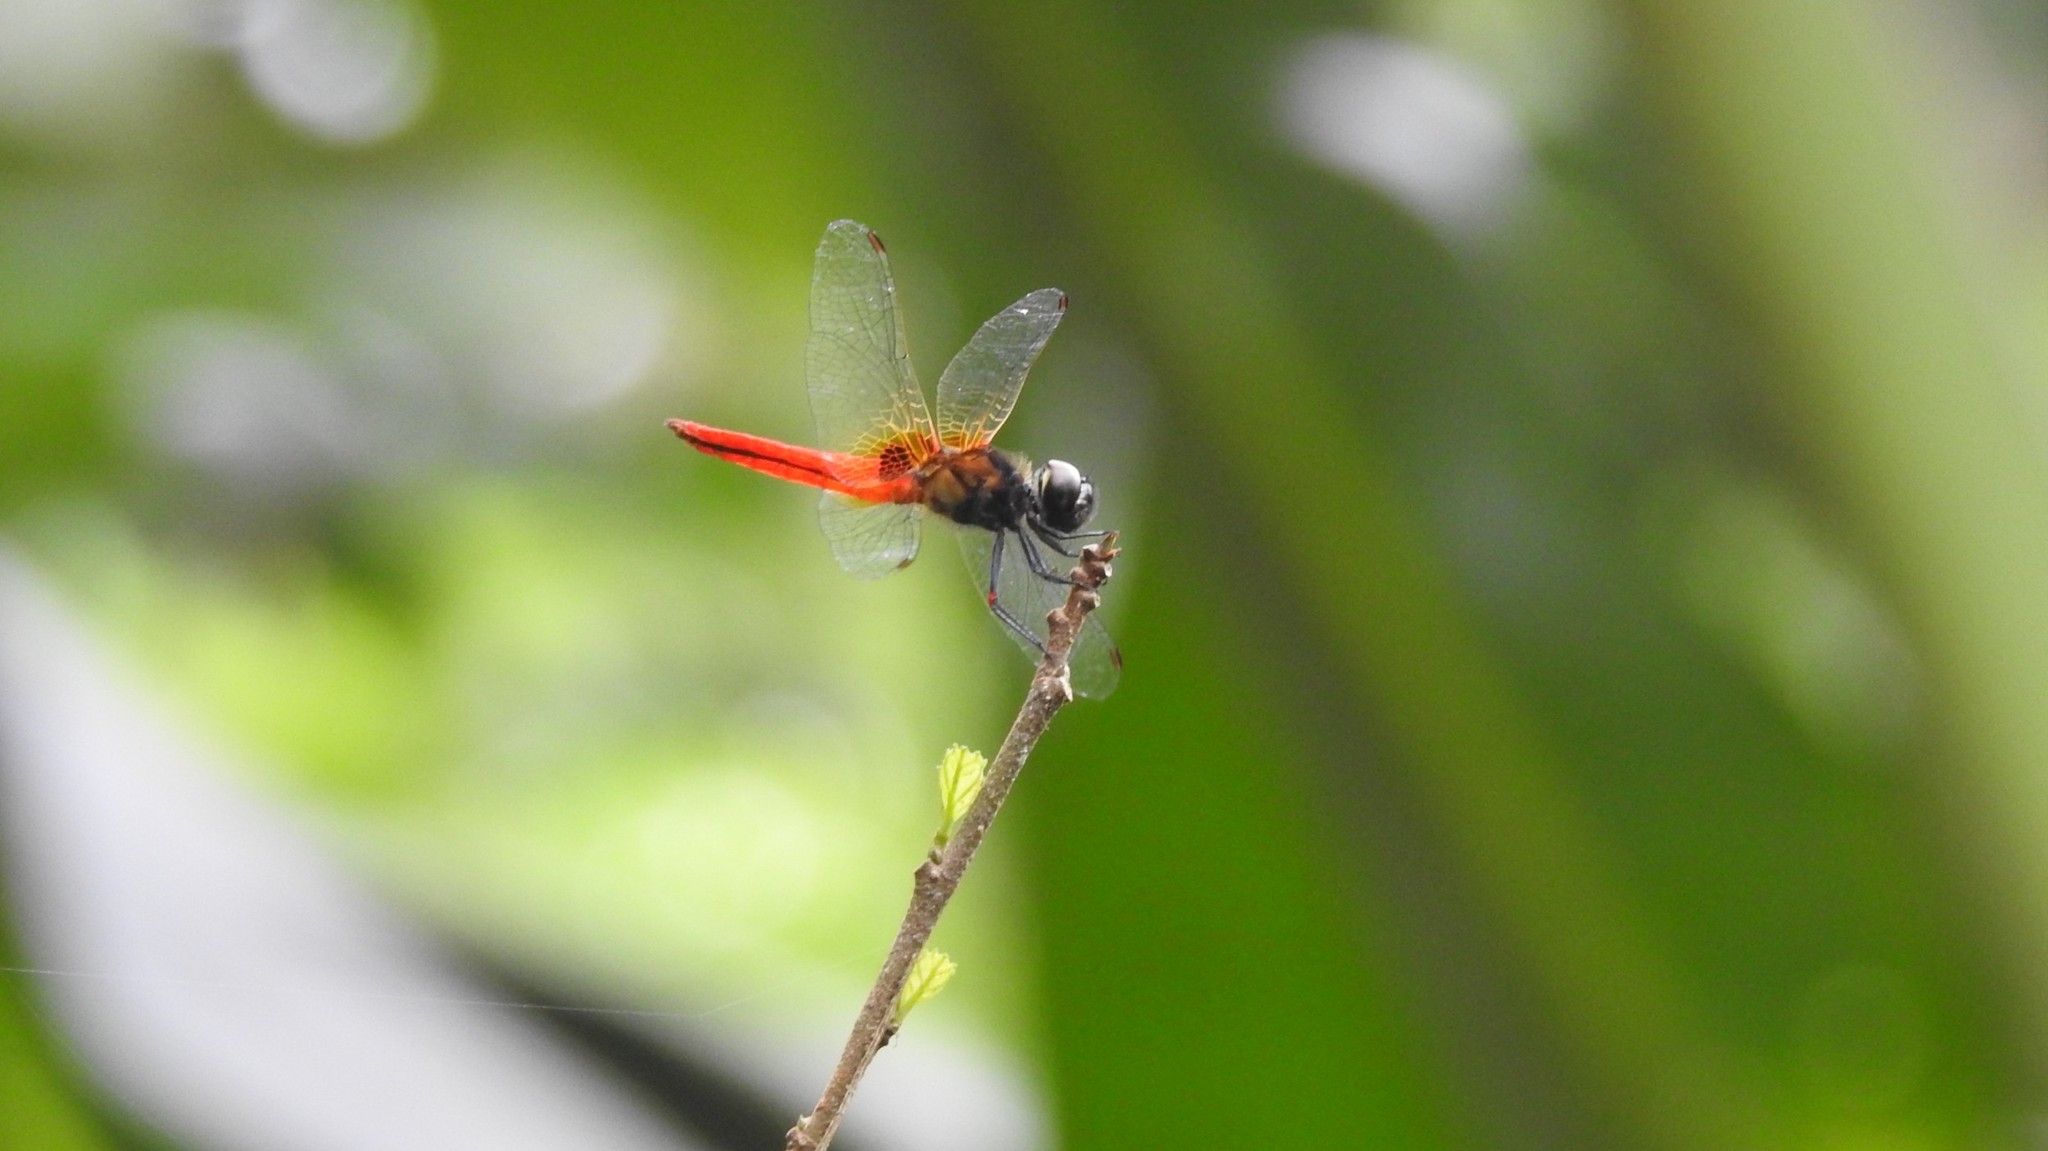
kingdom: Animalia
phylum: Arthropoda
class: Insecta
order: Odonata
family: Libellulidae
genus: Aethriamanta
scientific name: Aethriamanta brevipennis
